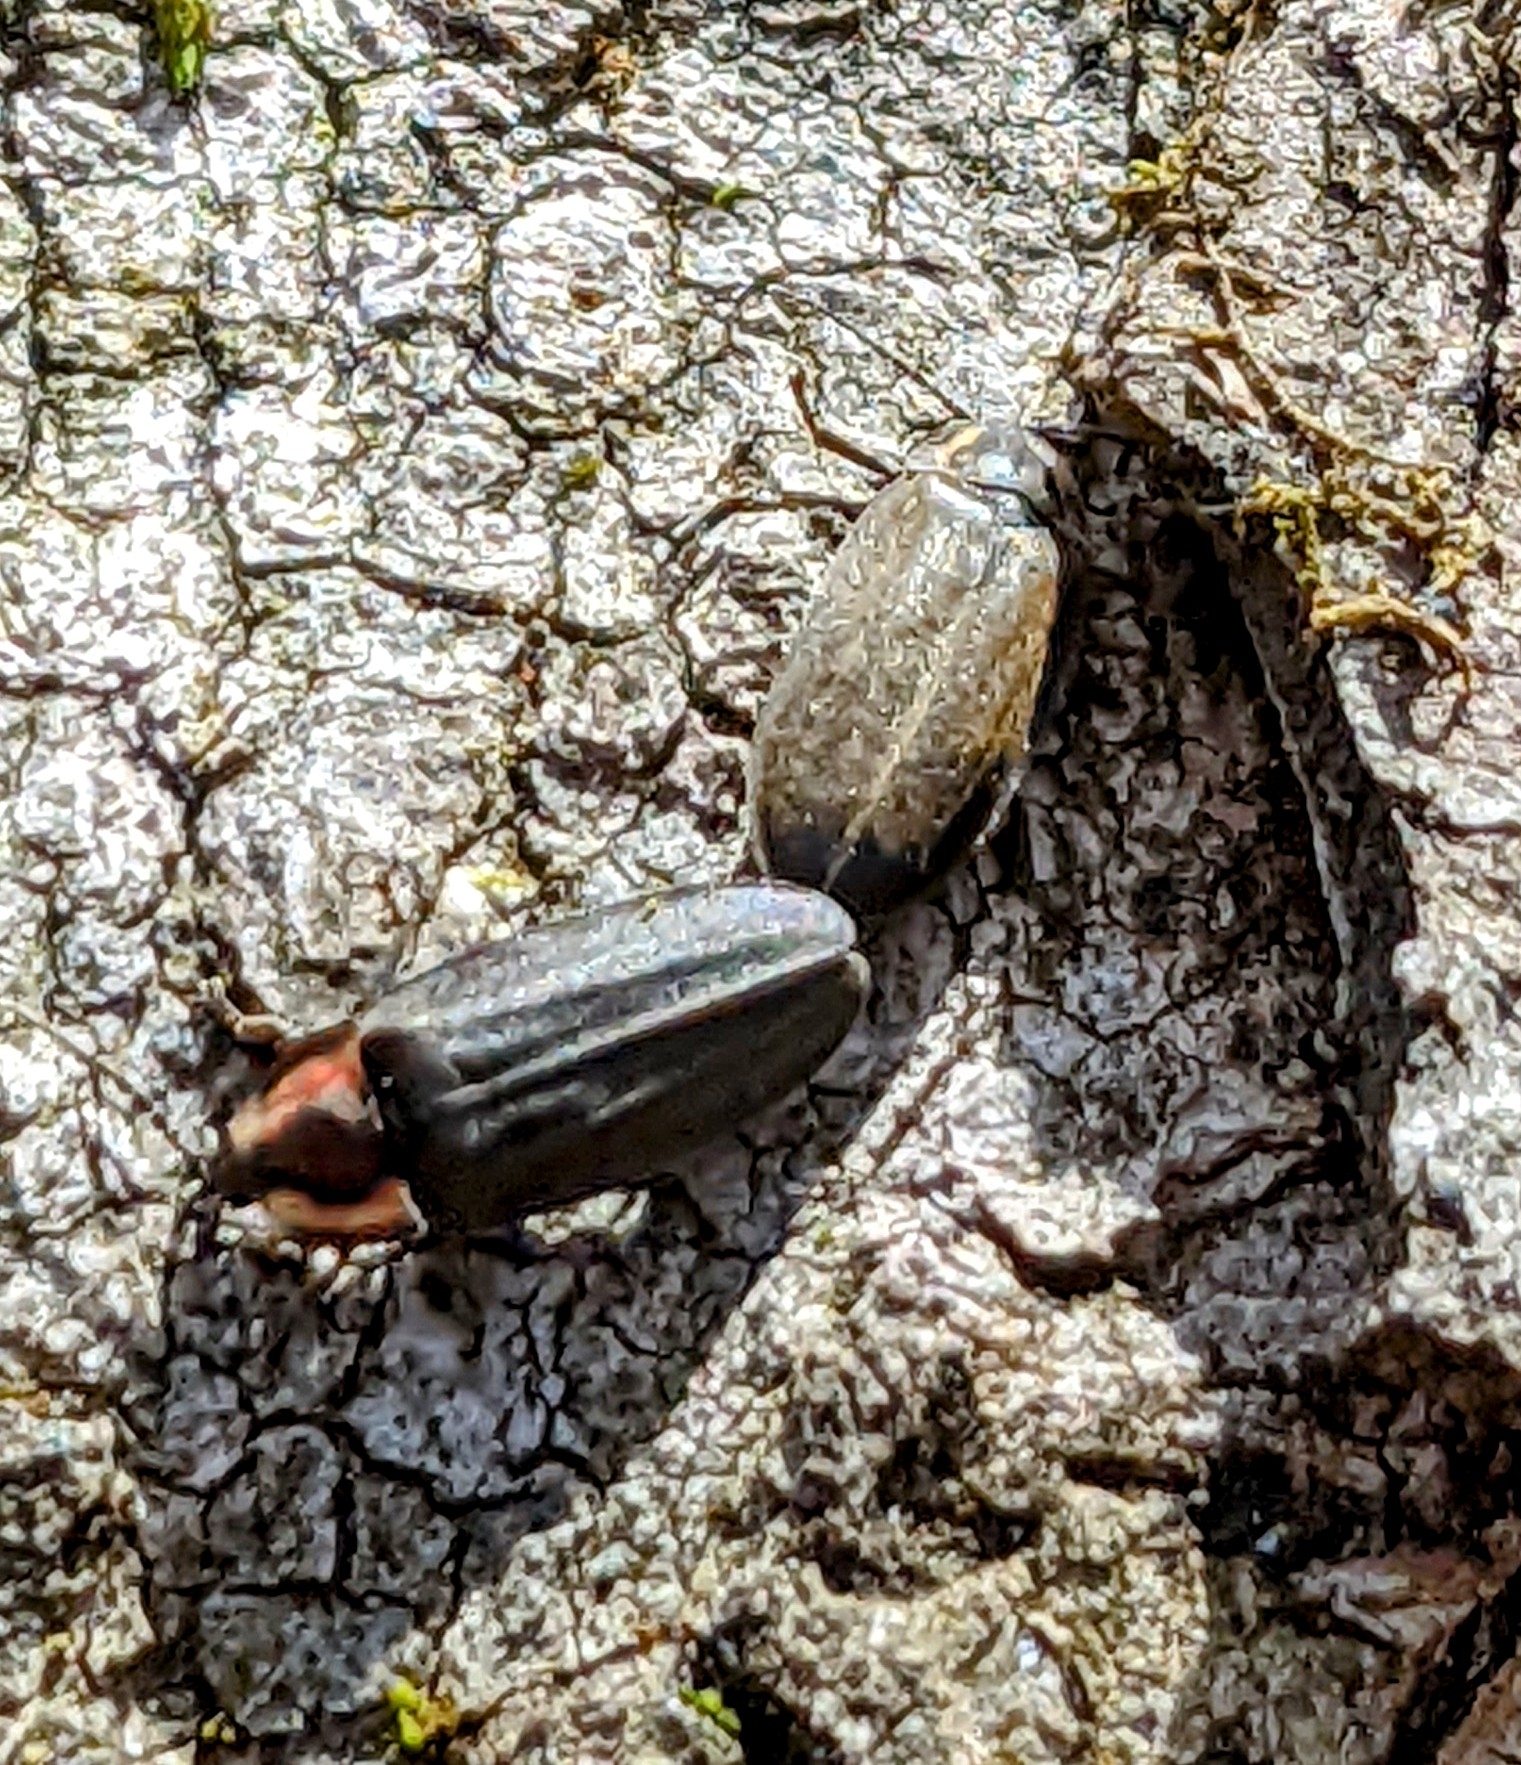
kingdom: Animalia
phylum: Arthropoda
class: Insecta
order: Coleoptera
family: Lampyridae
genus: Photinus
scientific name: Photinus corrusca
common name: Winter firefly
